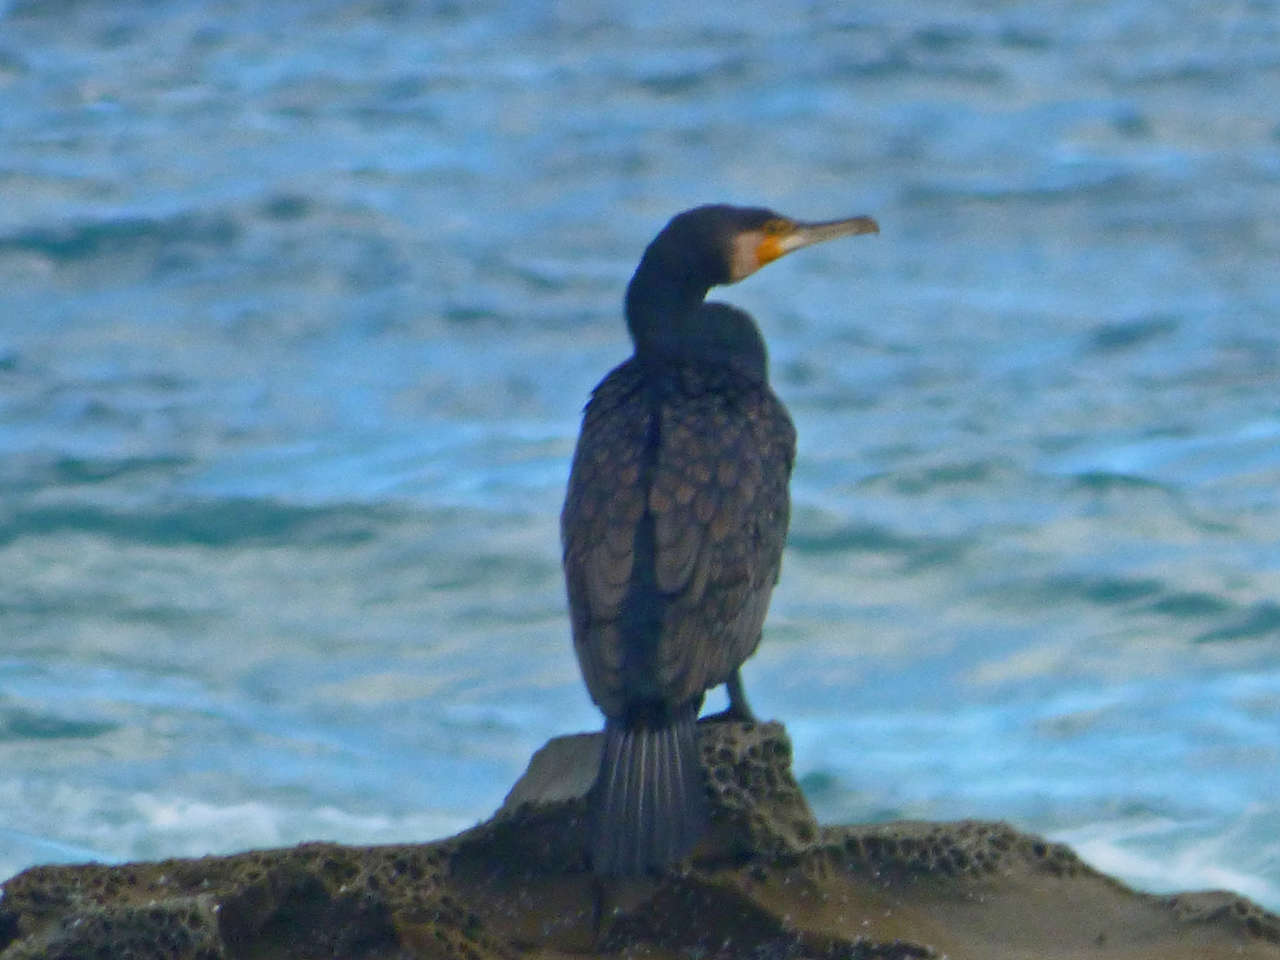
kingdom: Animalia
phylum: Chordata
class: Aves
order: Suliformes
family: Phalacrocoracidae
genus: Phalacrocorax
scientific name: Phalacrocorax carbo
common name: Great cormorant
